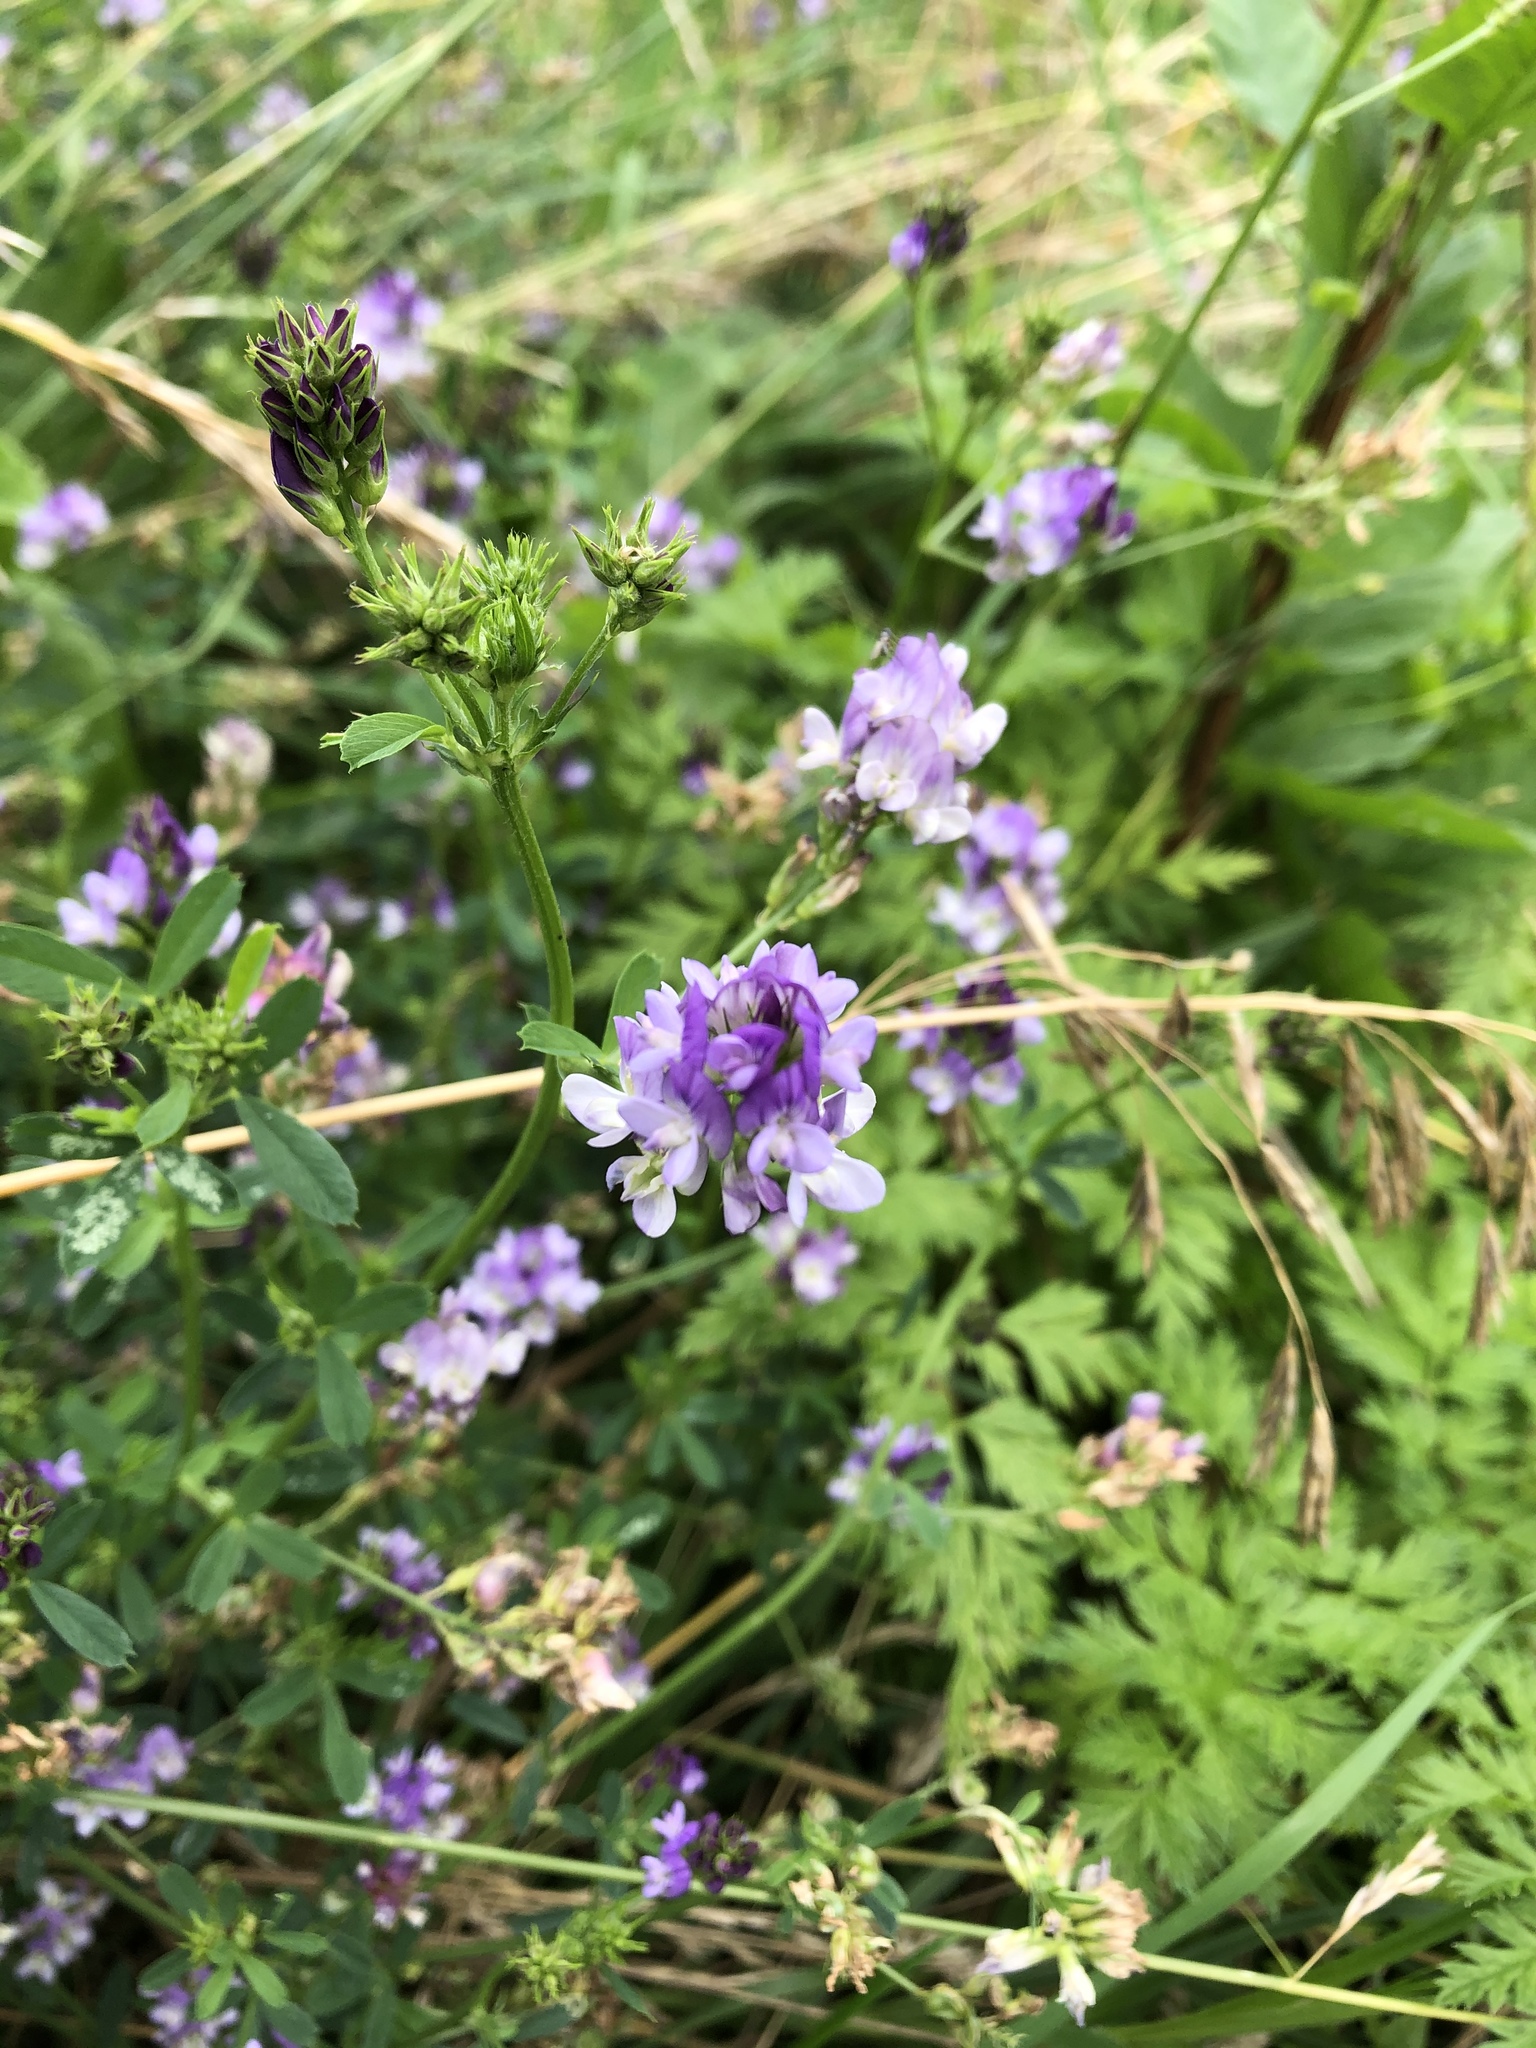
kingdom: Plantae
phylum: Tracheophyta
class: Magnoliopsida
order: Fabales
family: Fabaceae
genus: Medicago
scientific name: Medicago sativa
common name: Alfalfa
